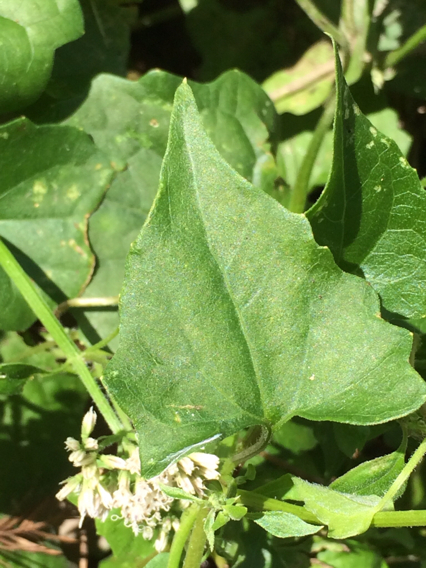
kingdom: Plantae
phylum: Tracheophyta
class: Magnoliopsida
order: Asterales
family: Asteraceae
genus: Mikania
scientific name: Mikania scandens
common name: Climbing hempvine
